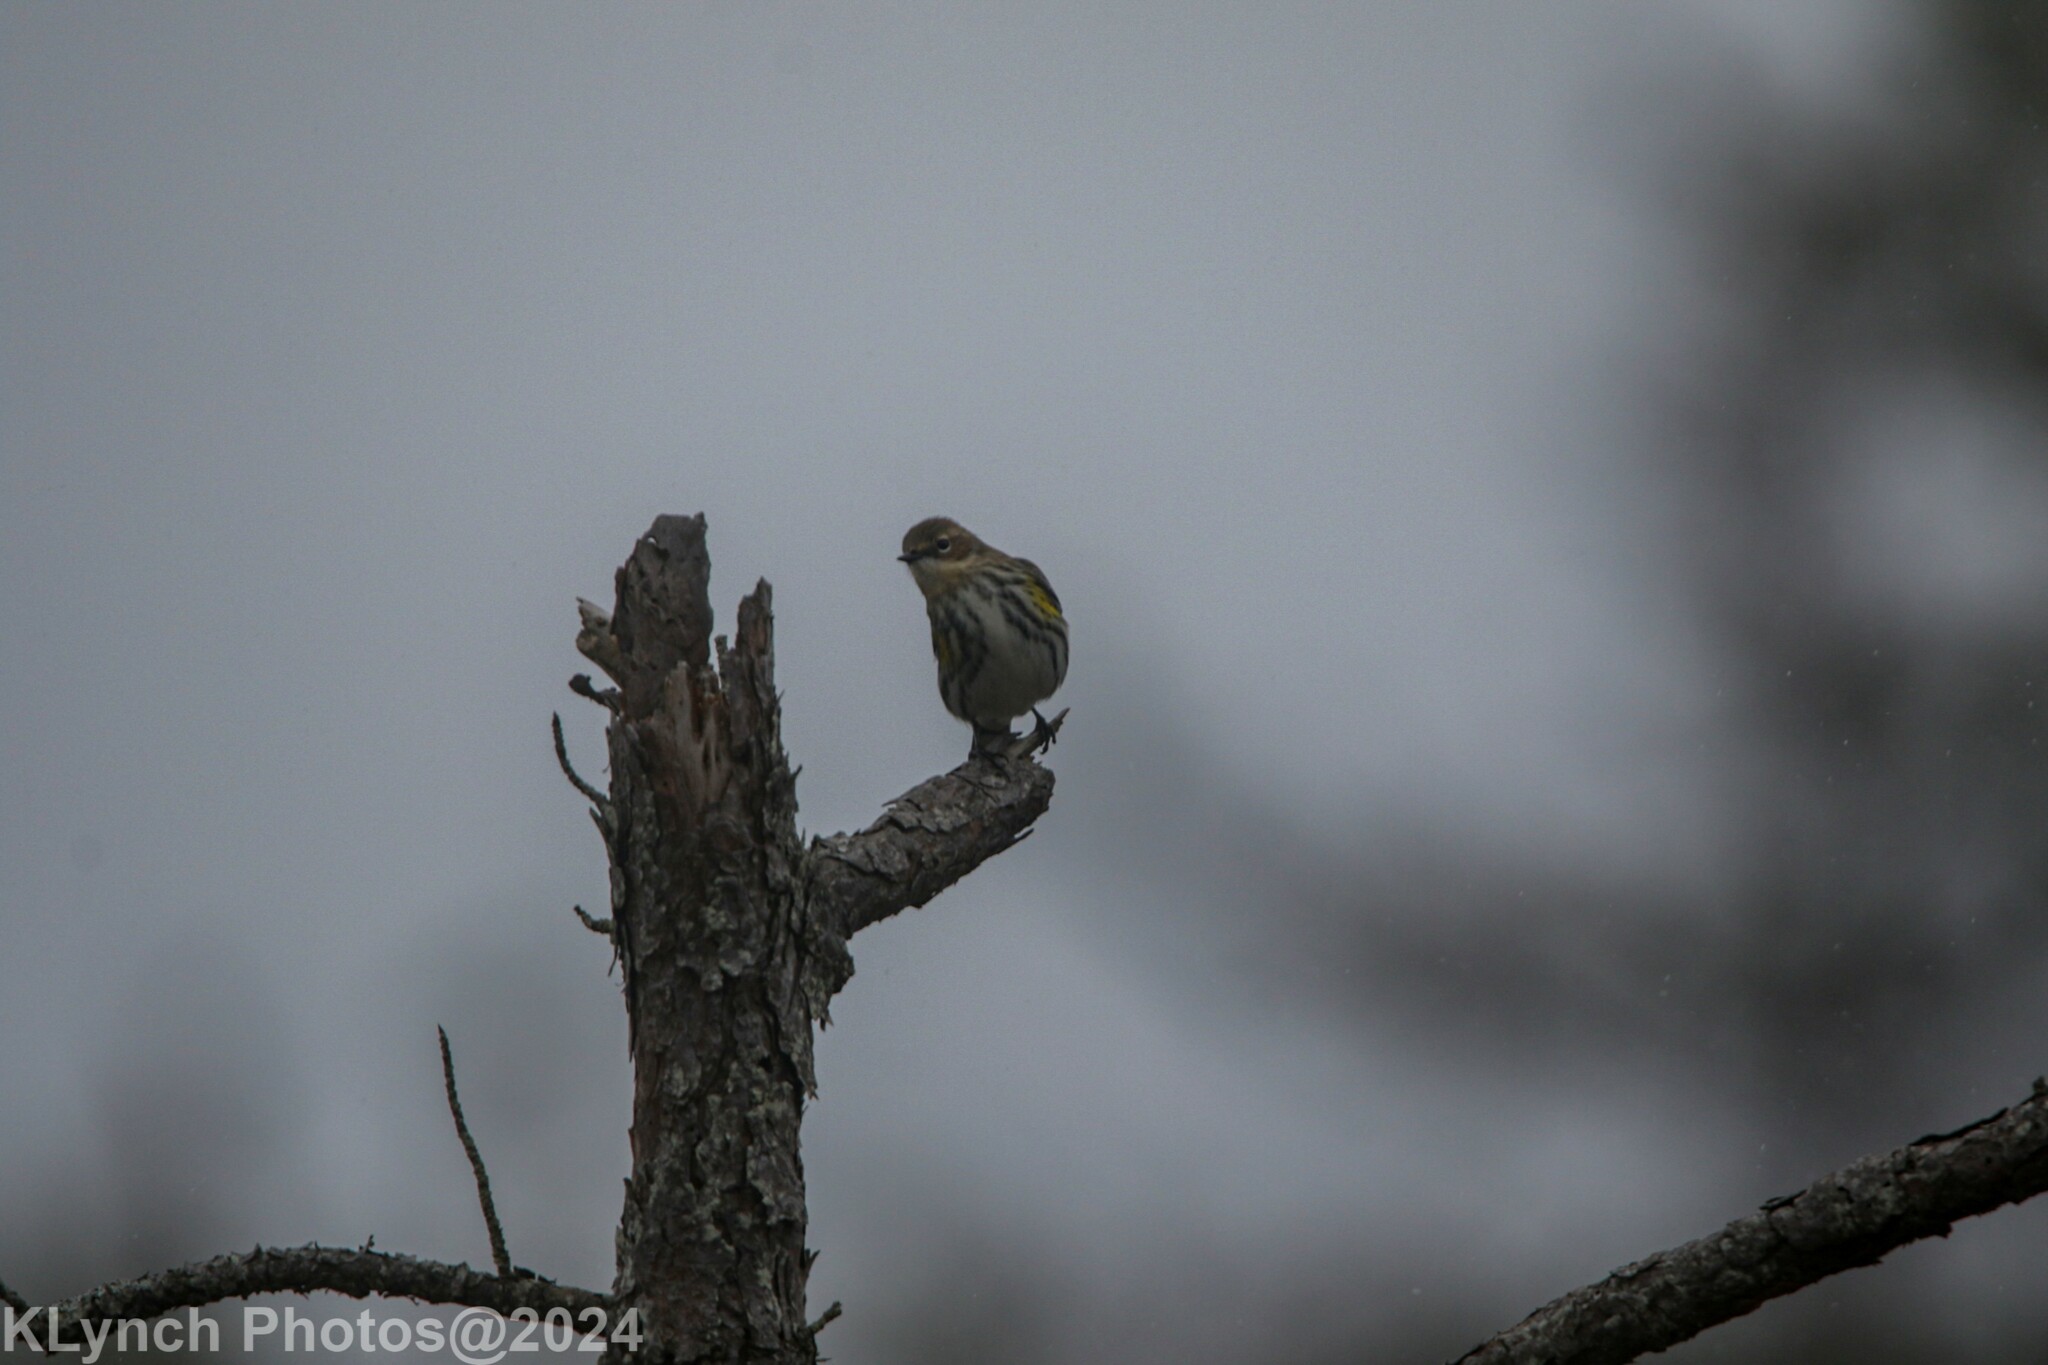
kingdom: Animalia
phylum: Chordata
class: Aves
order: Passeriformes
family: Parulidae
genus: Setophaga
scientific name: Setophaga coronata
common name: Myrtle warbler
